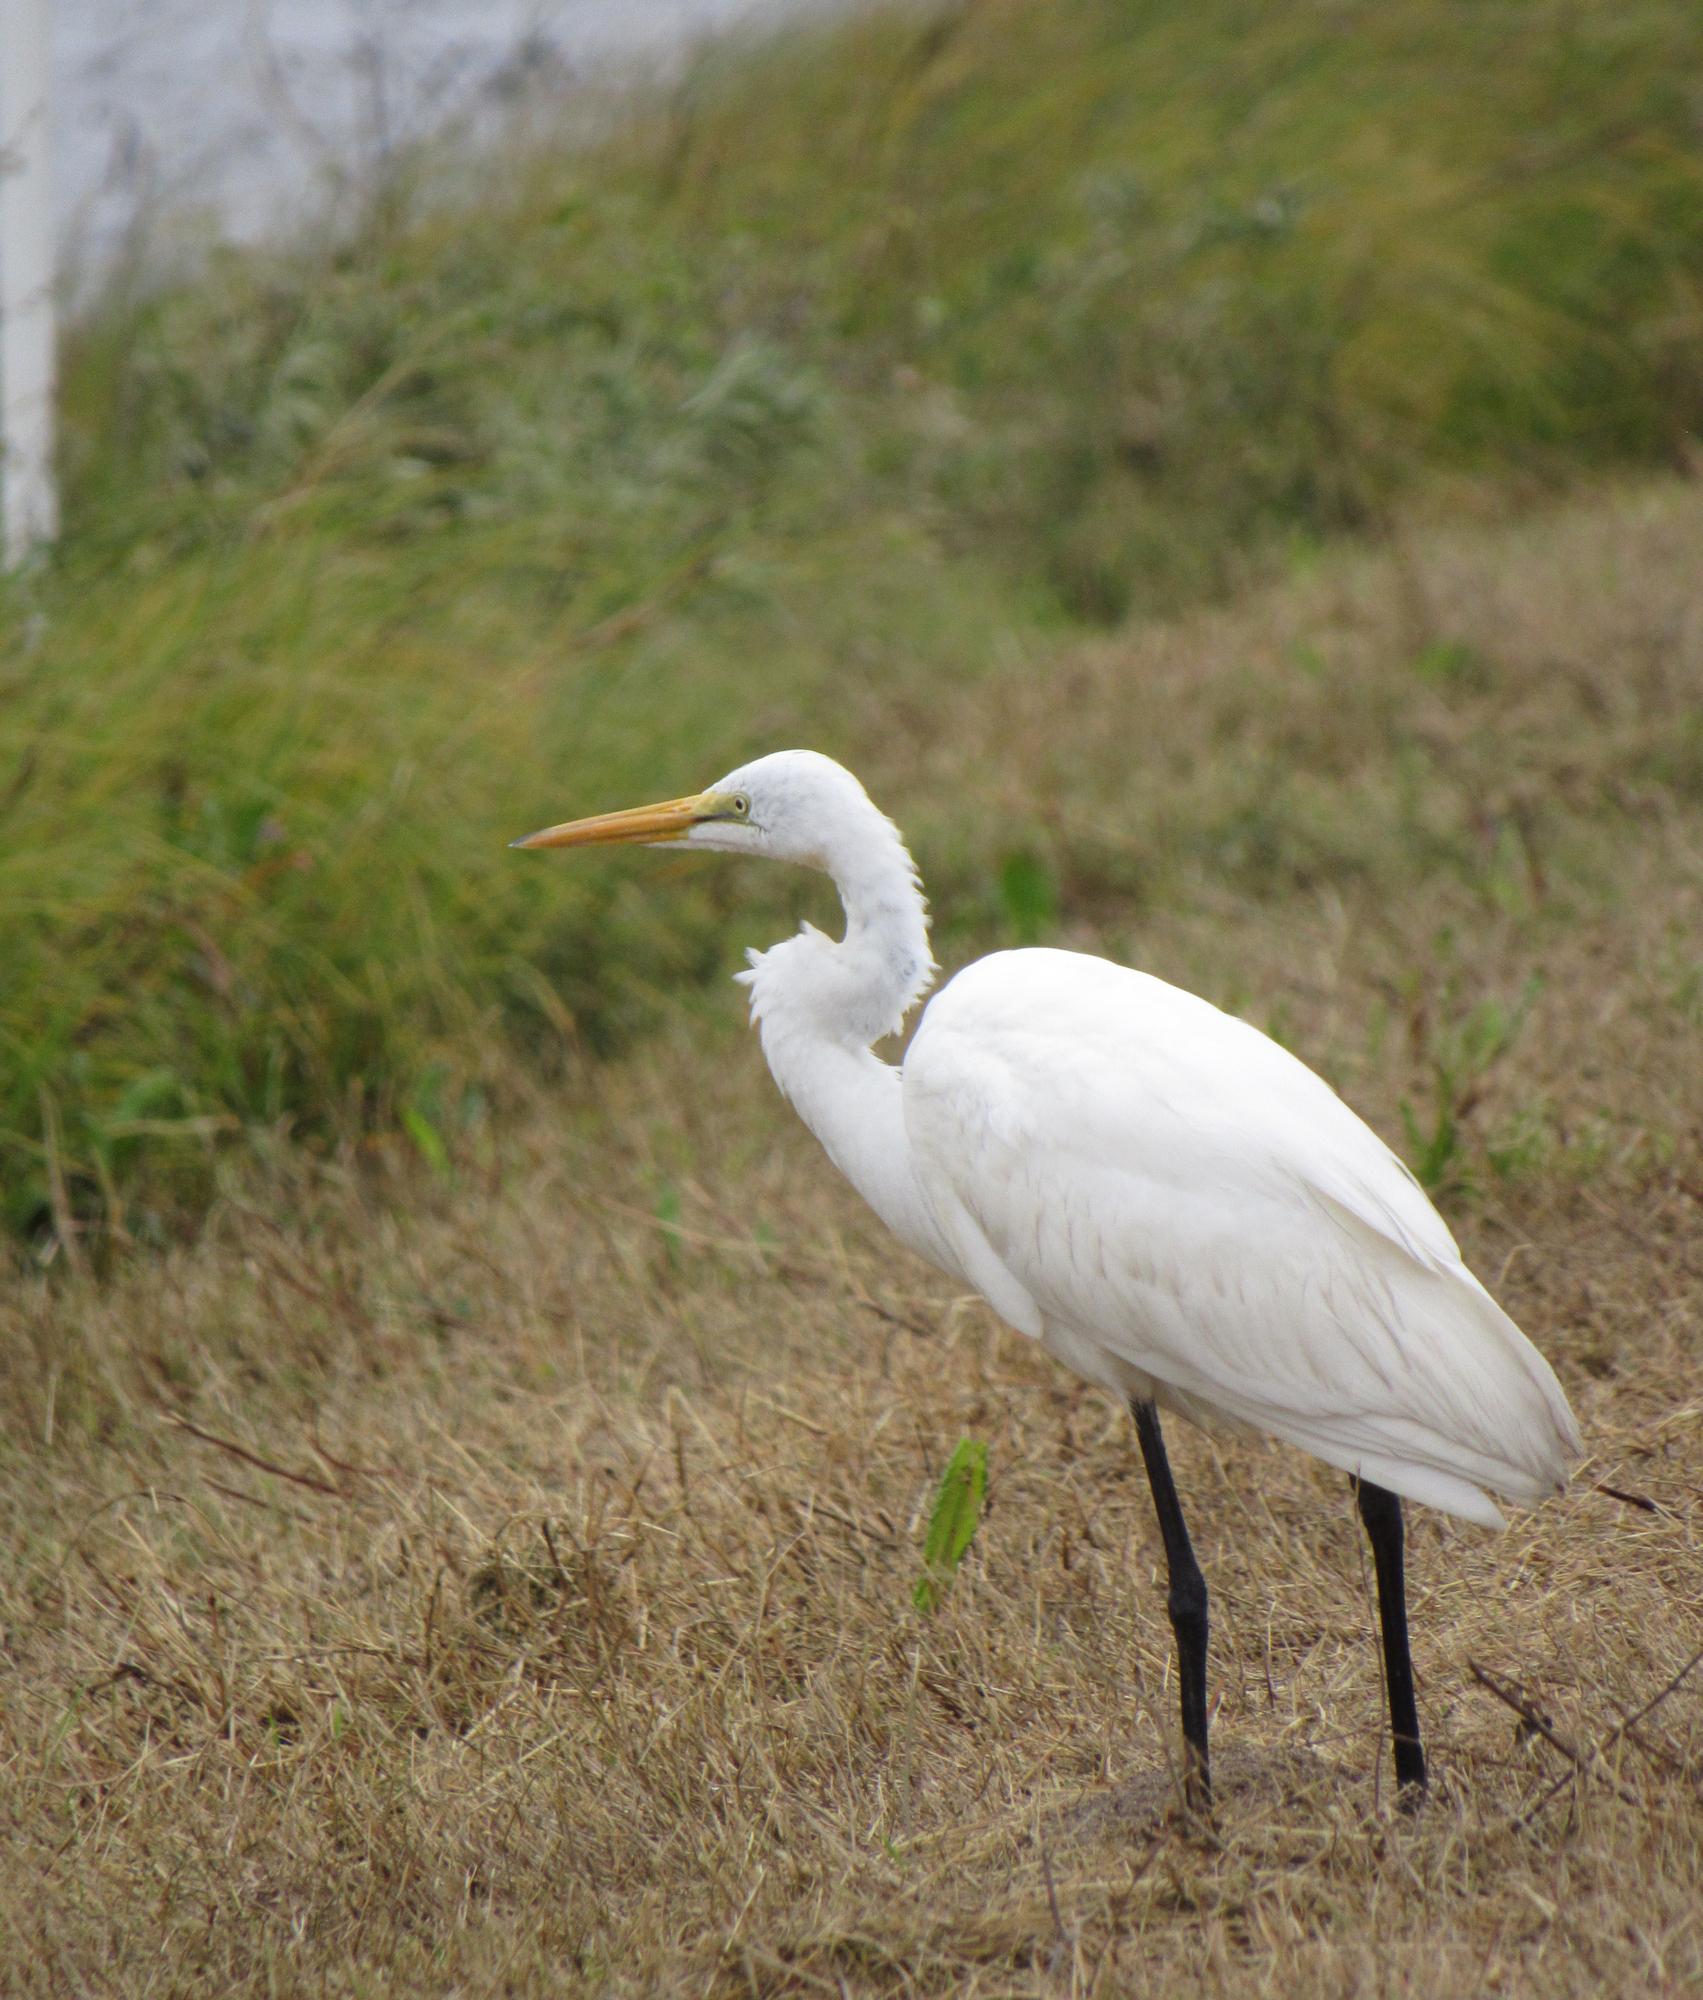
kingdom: Animalia
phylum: Chordata
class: Aves
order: Pelecaniformes
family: Ardeidae
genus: Ardea
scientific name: Ardea alba
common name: Great egret
